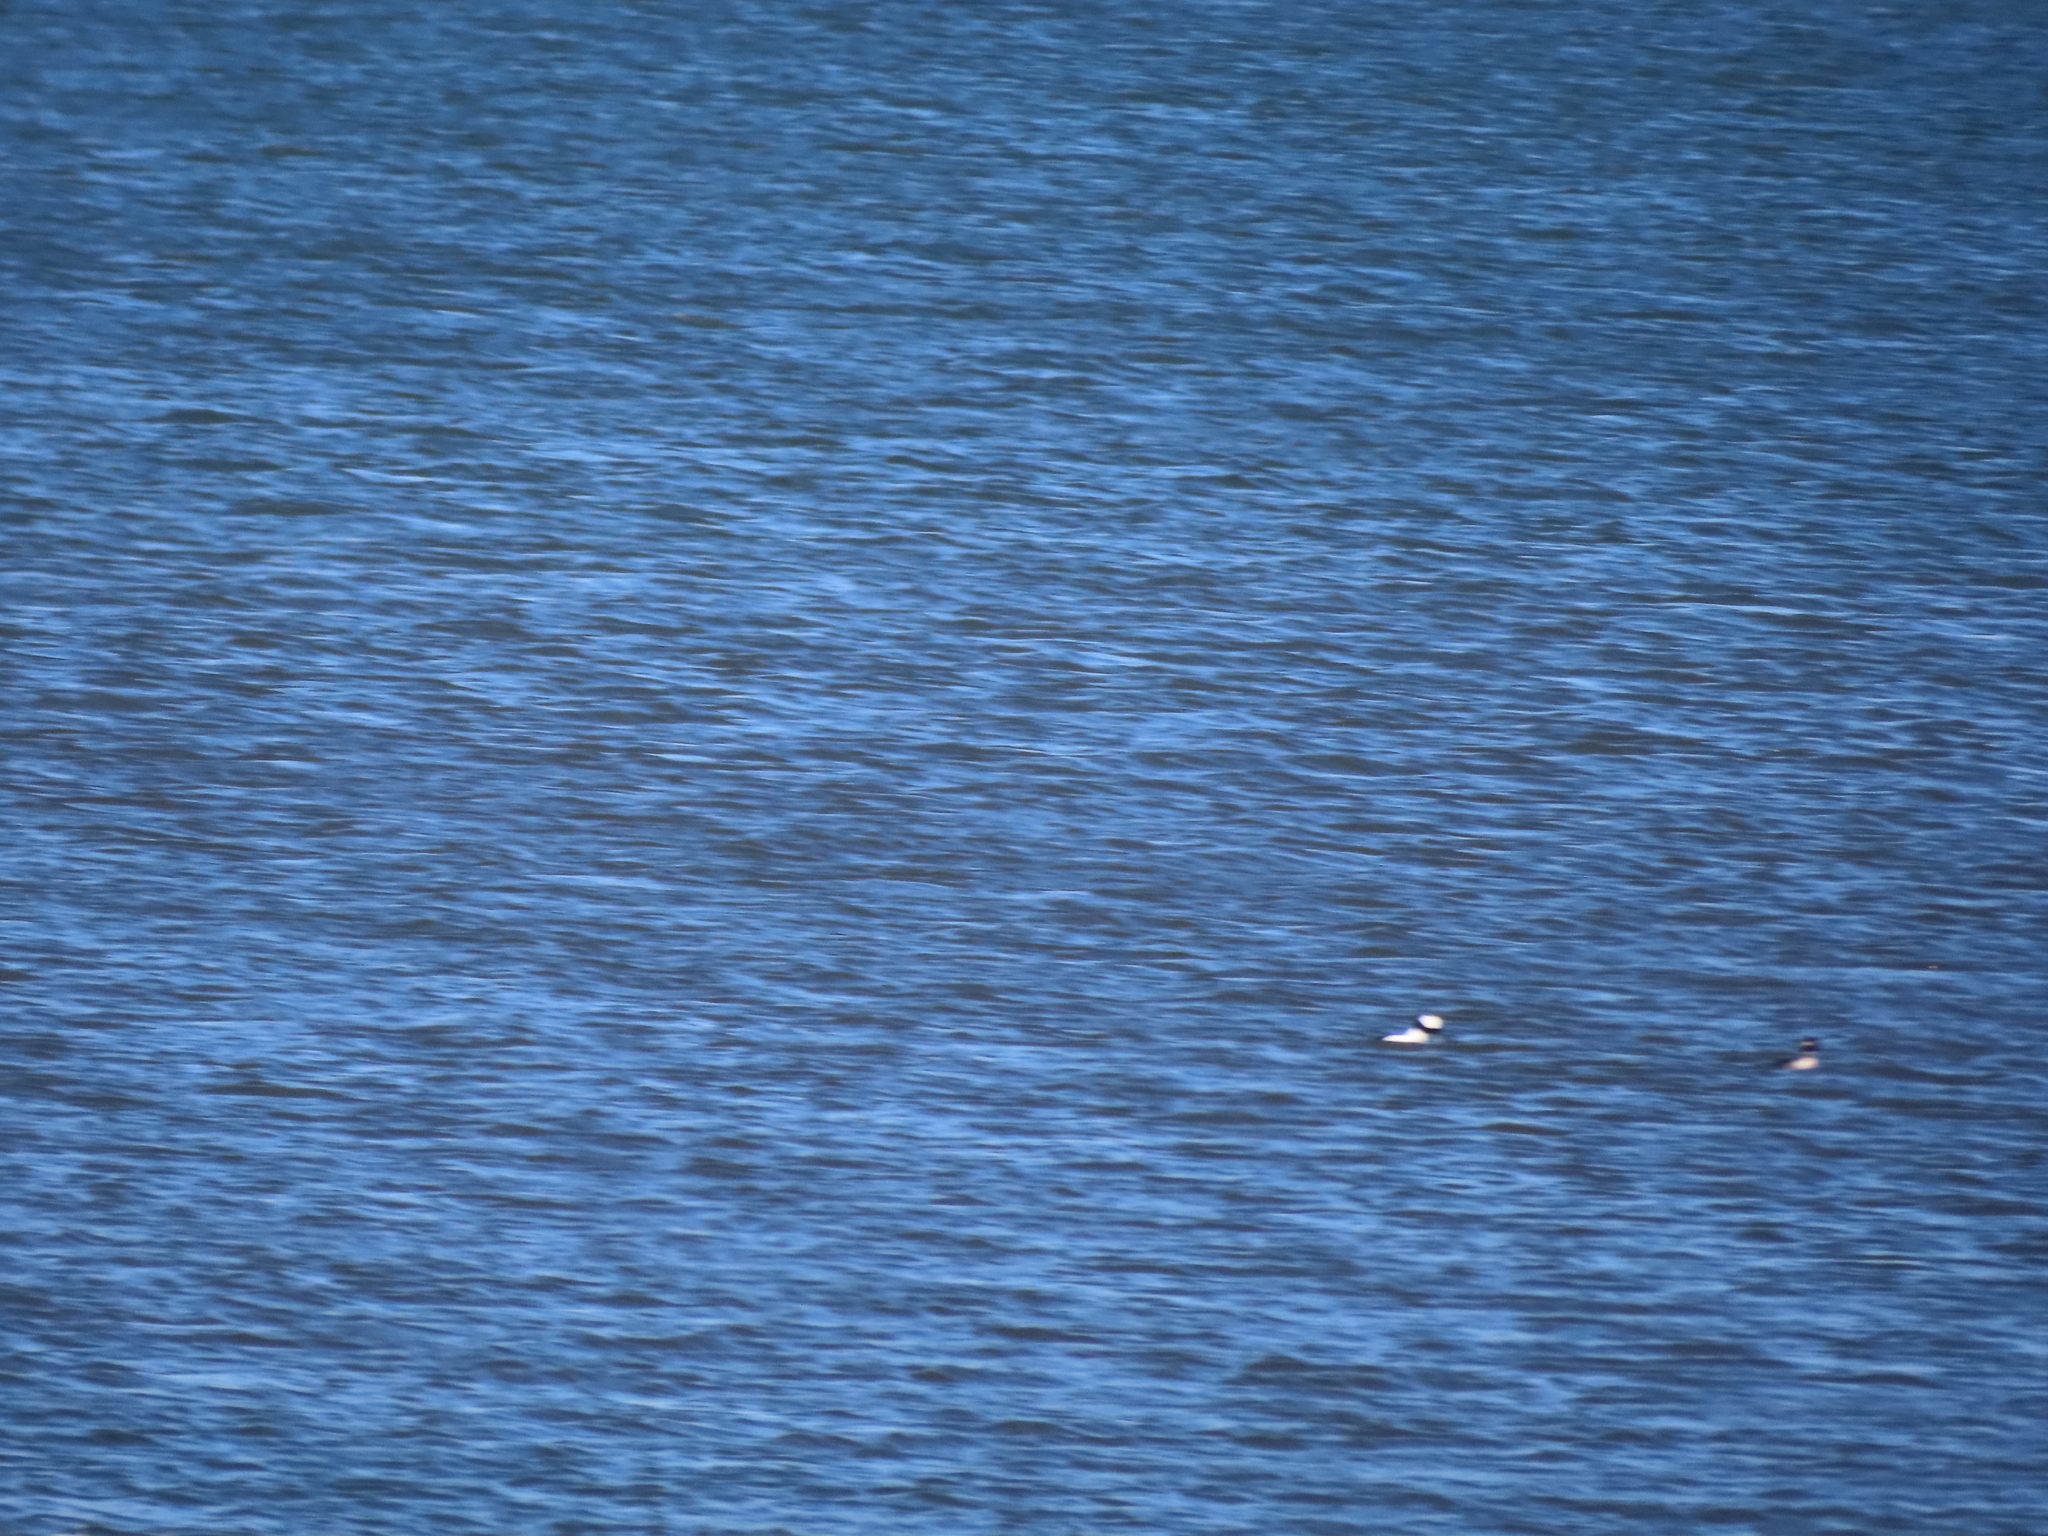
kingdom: Animalia
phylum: Chordata
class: Aves
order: Anseriformes
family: Anatidae
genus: Bucephala
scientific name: Bucephala albeola
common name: Bufflehead
